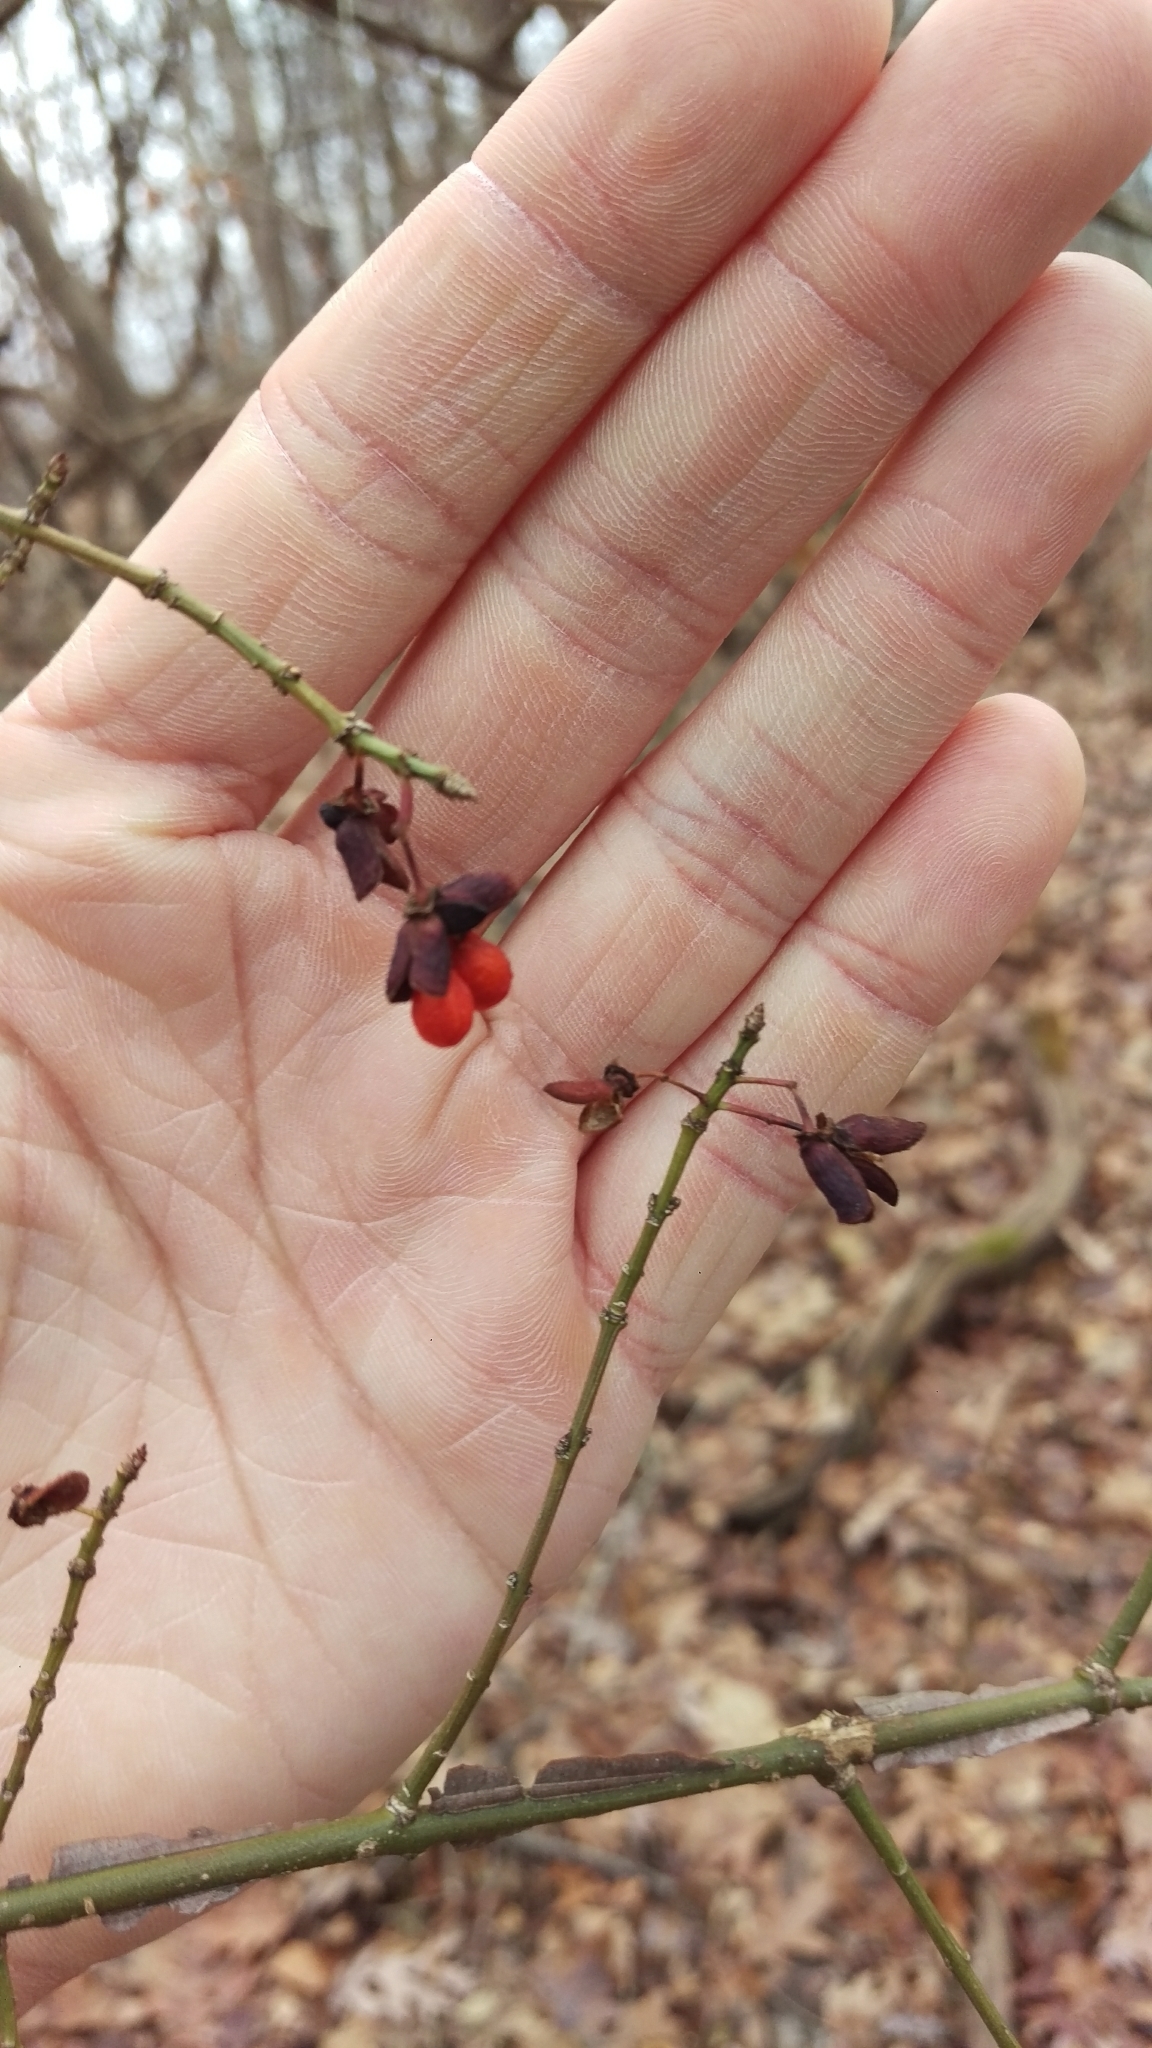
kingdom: Plantae
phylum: Tracheophyta
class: Magnoliopsida
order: Celastrales
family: Celastraceae
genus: Euonymus
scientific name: Euonymus alatus
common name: Winged euonymus
